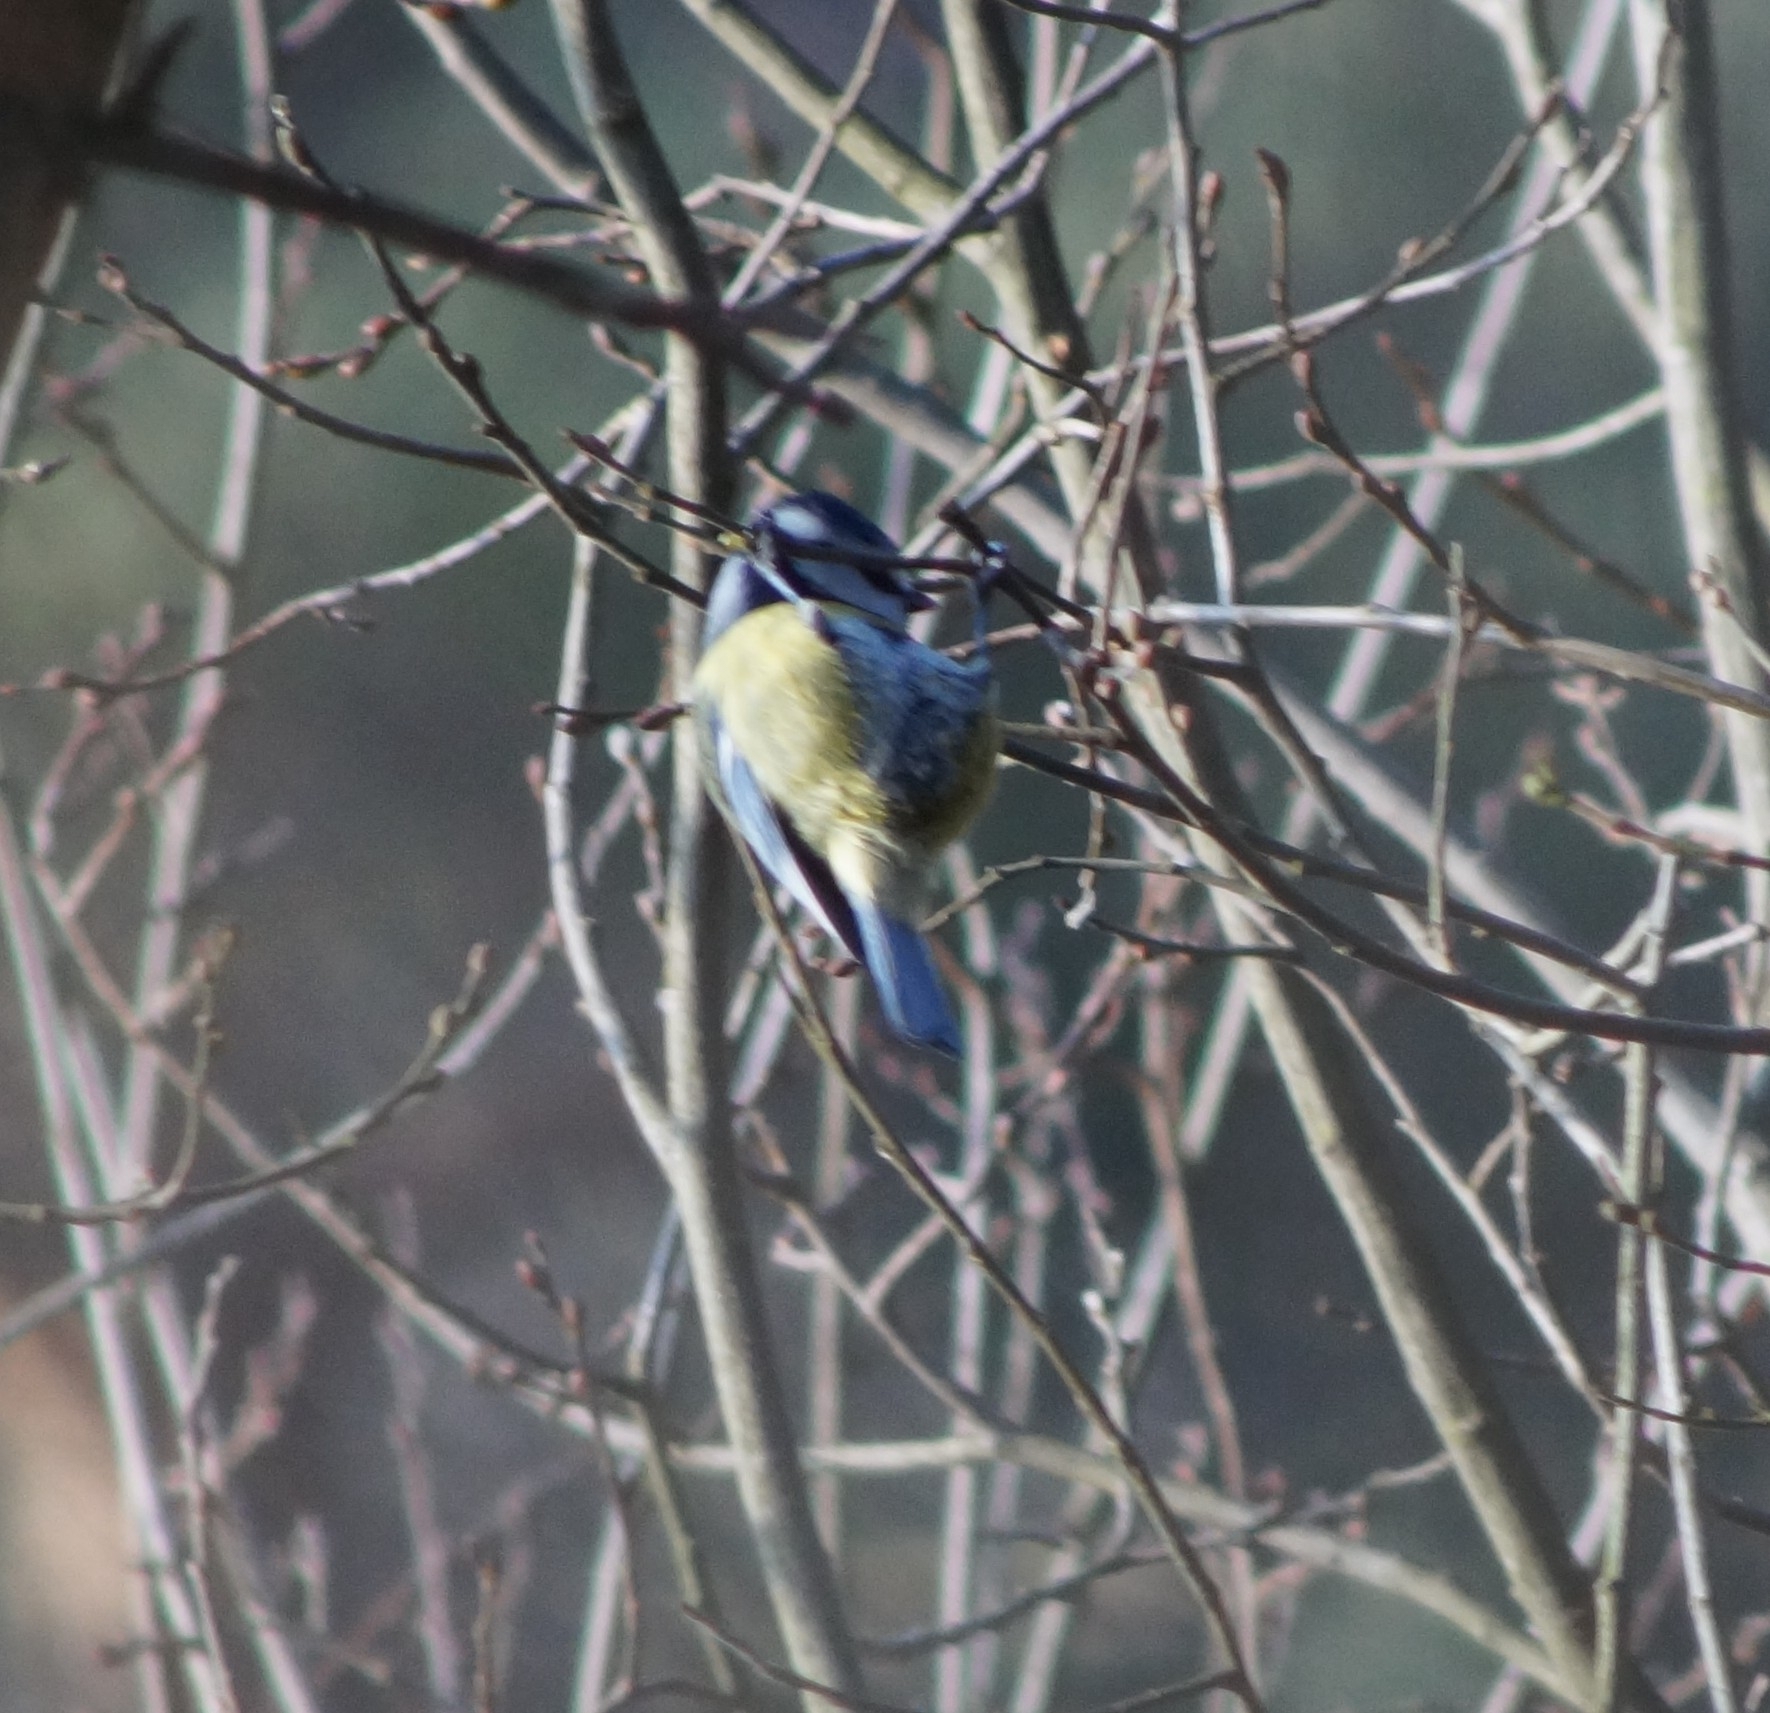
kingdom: Animalia
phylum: Chordata
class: Aves
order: Passeriformes
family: Paridae
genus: Cyanistes
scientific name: Cyanistes caeruleus
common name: Eurasian blue tit
